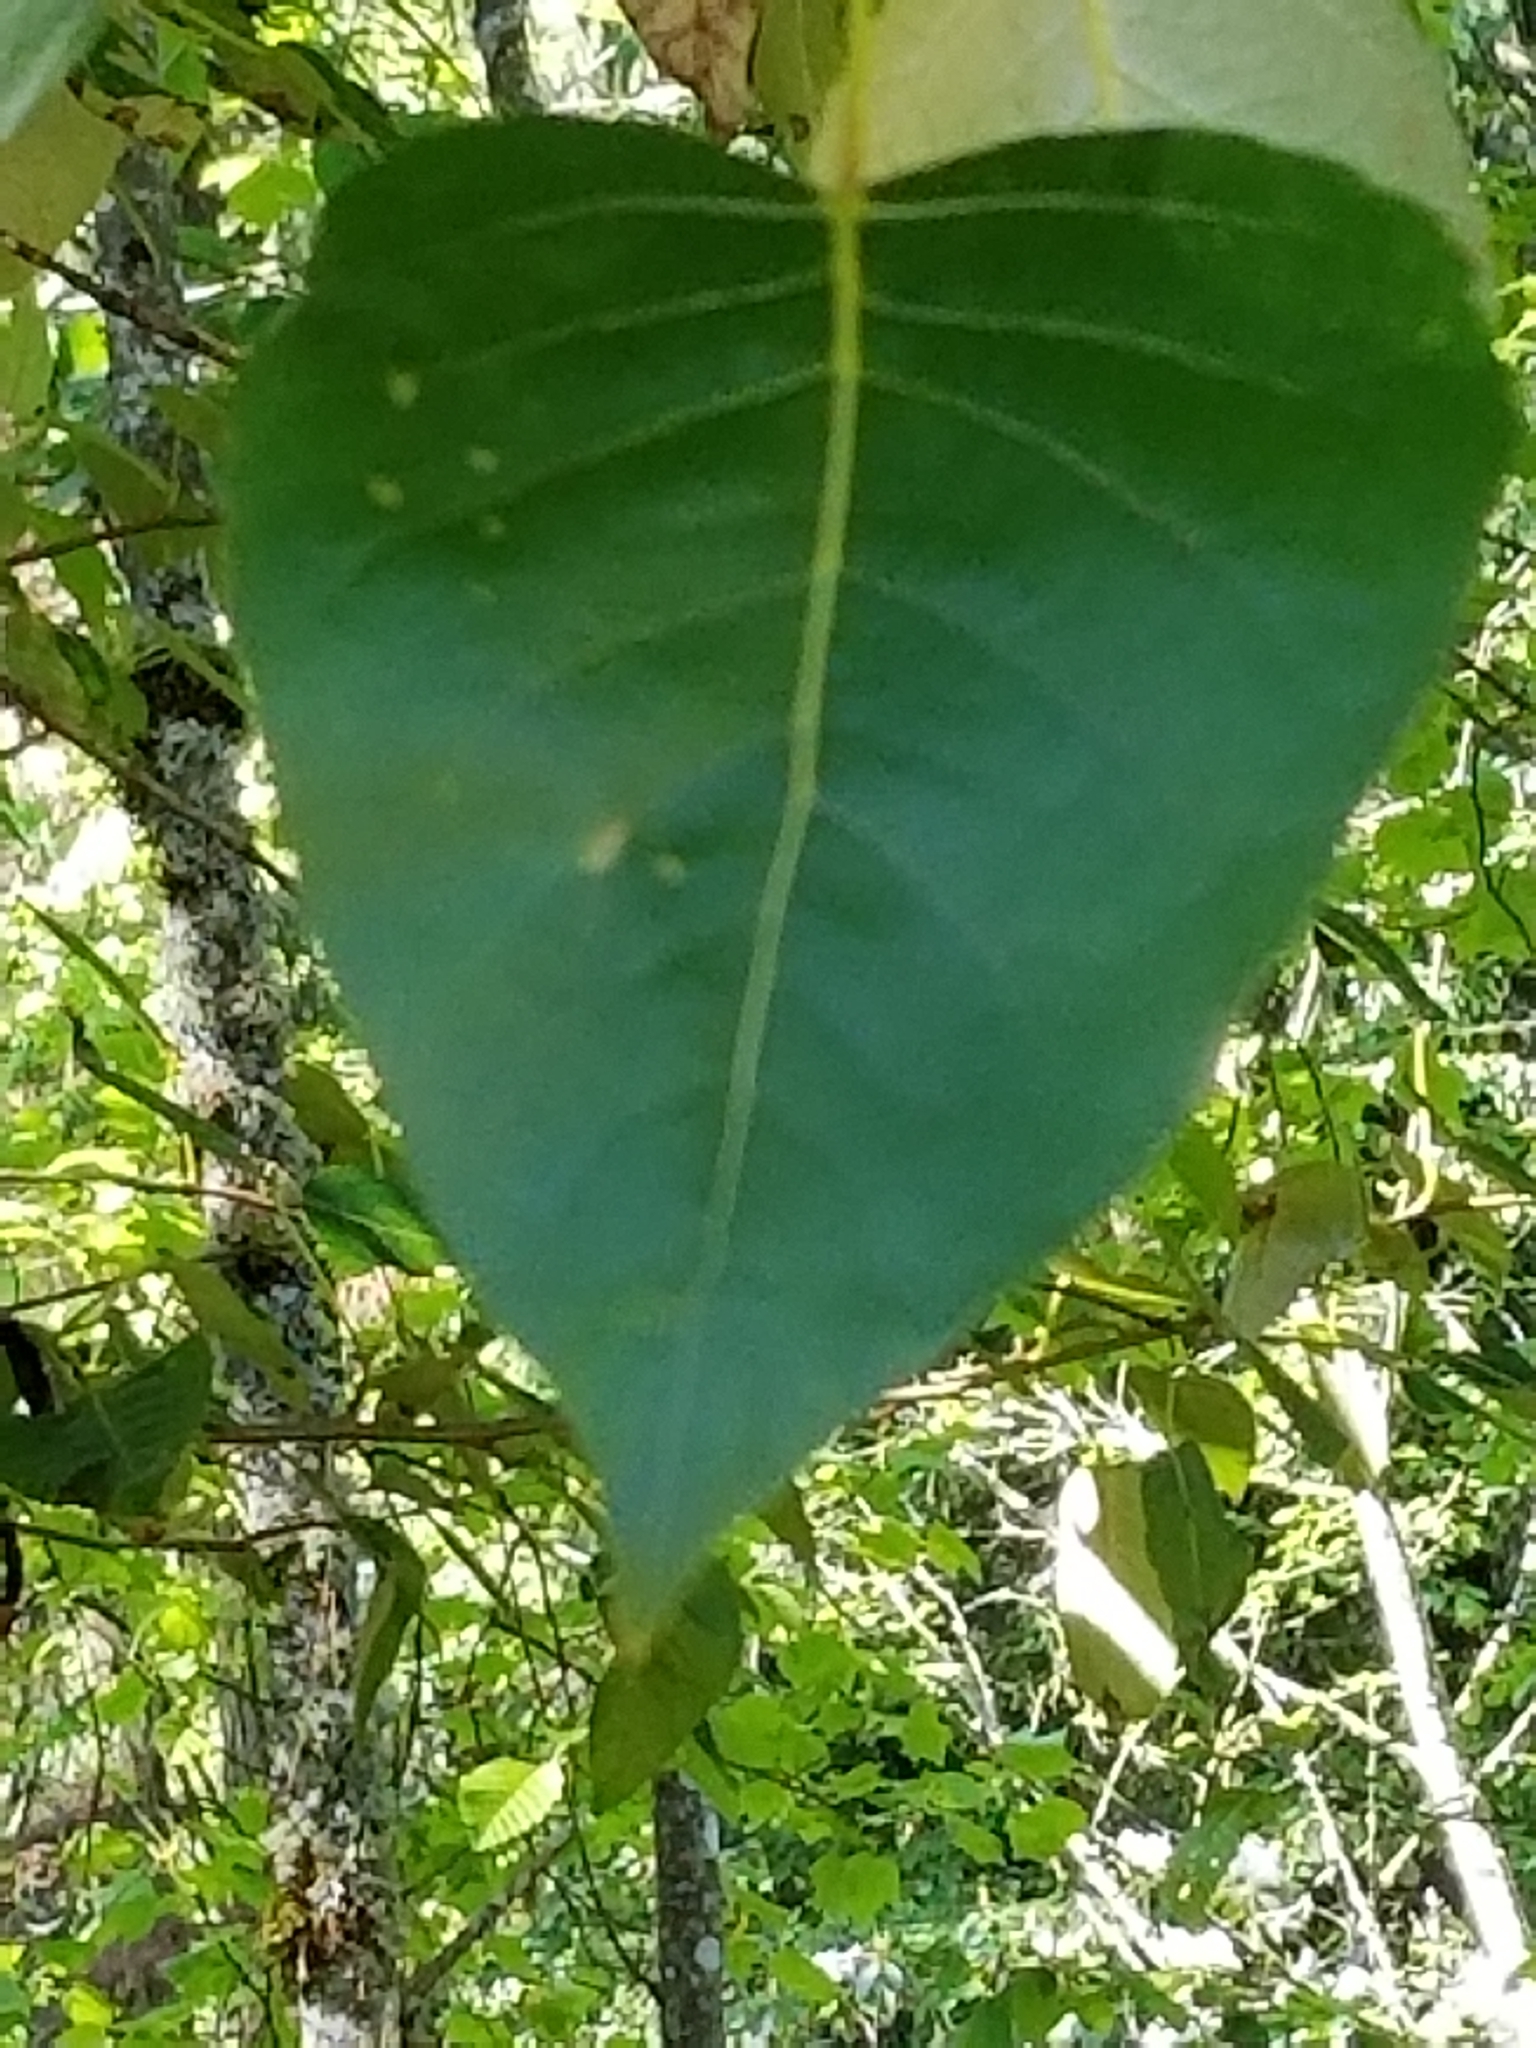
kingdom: Plantae
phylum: Tracheophyta
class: Magnoliopsida
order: Malpighiales
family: Salicaceae
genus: Populus
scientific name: Populus trichocarpa
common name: Black cottonwood
